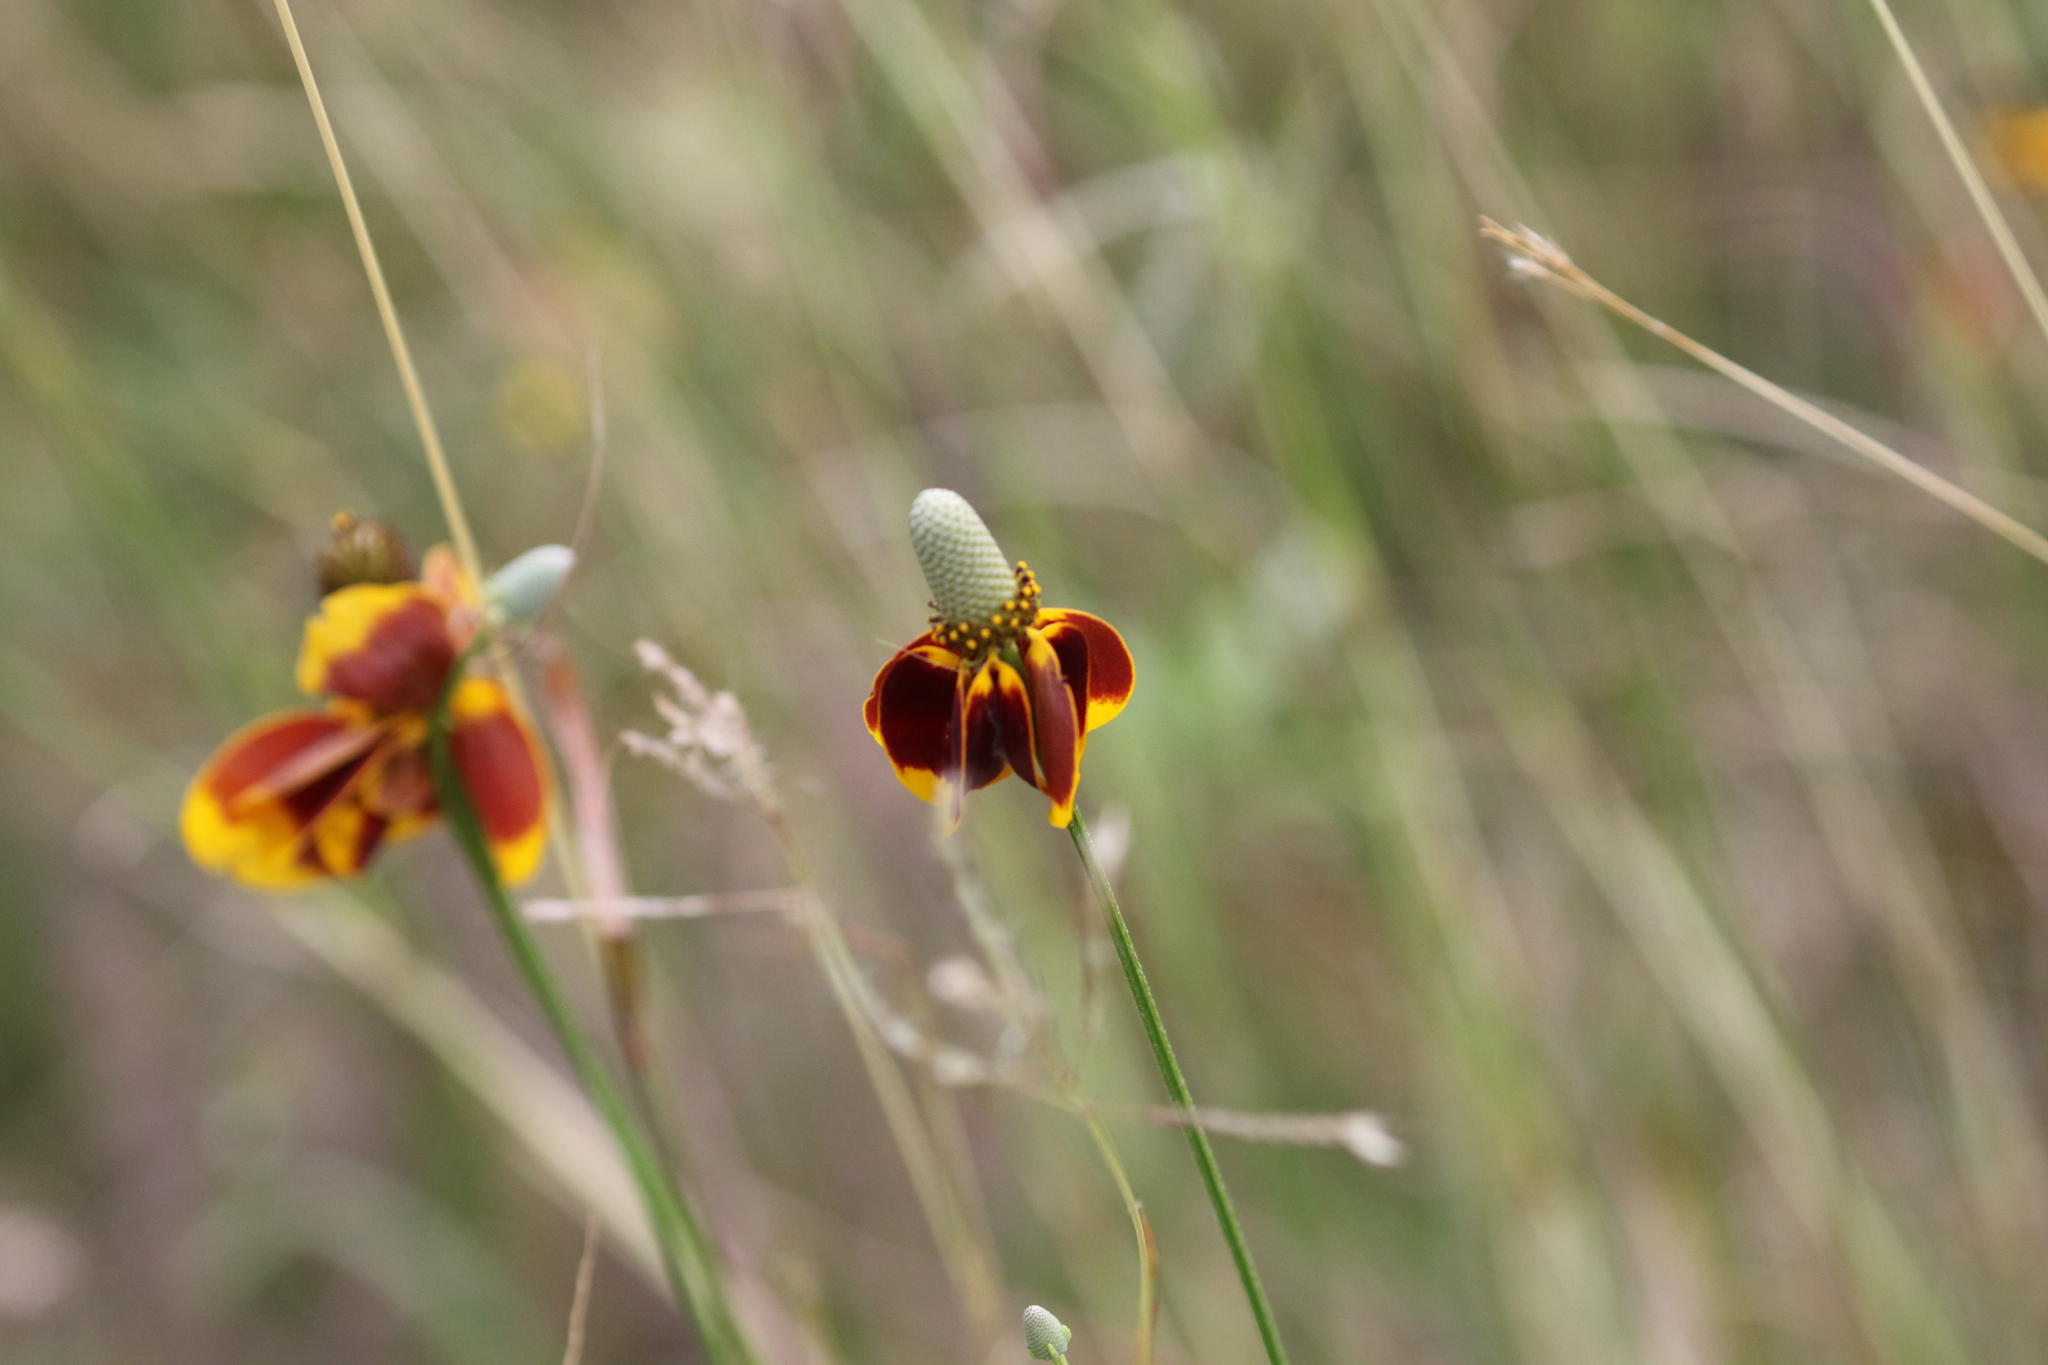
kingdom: Plantae
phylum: Tracheophyta
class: Magnoliopsida
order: Asterales
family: Asteraceae
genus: Ratibida
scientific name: Ratibida columnifera
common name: Prairie coneflower
